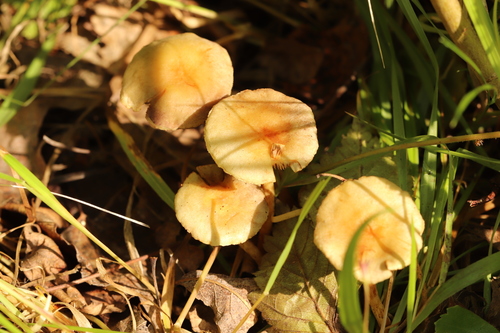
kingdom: Fungi
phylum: Basidiomycota
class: Agaricomycetes
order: Agaricales
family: Strophariaceae
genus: Hypholoma
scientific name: Hypholoma fasciculare
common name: Sulphur tuft
